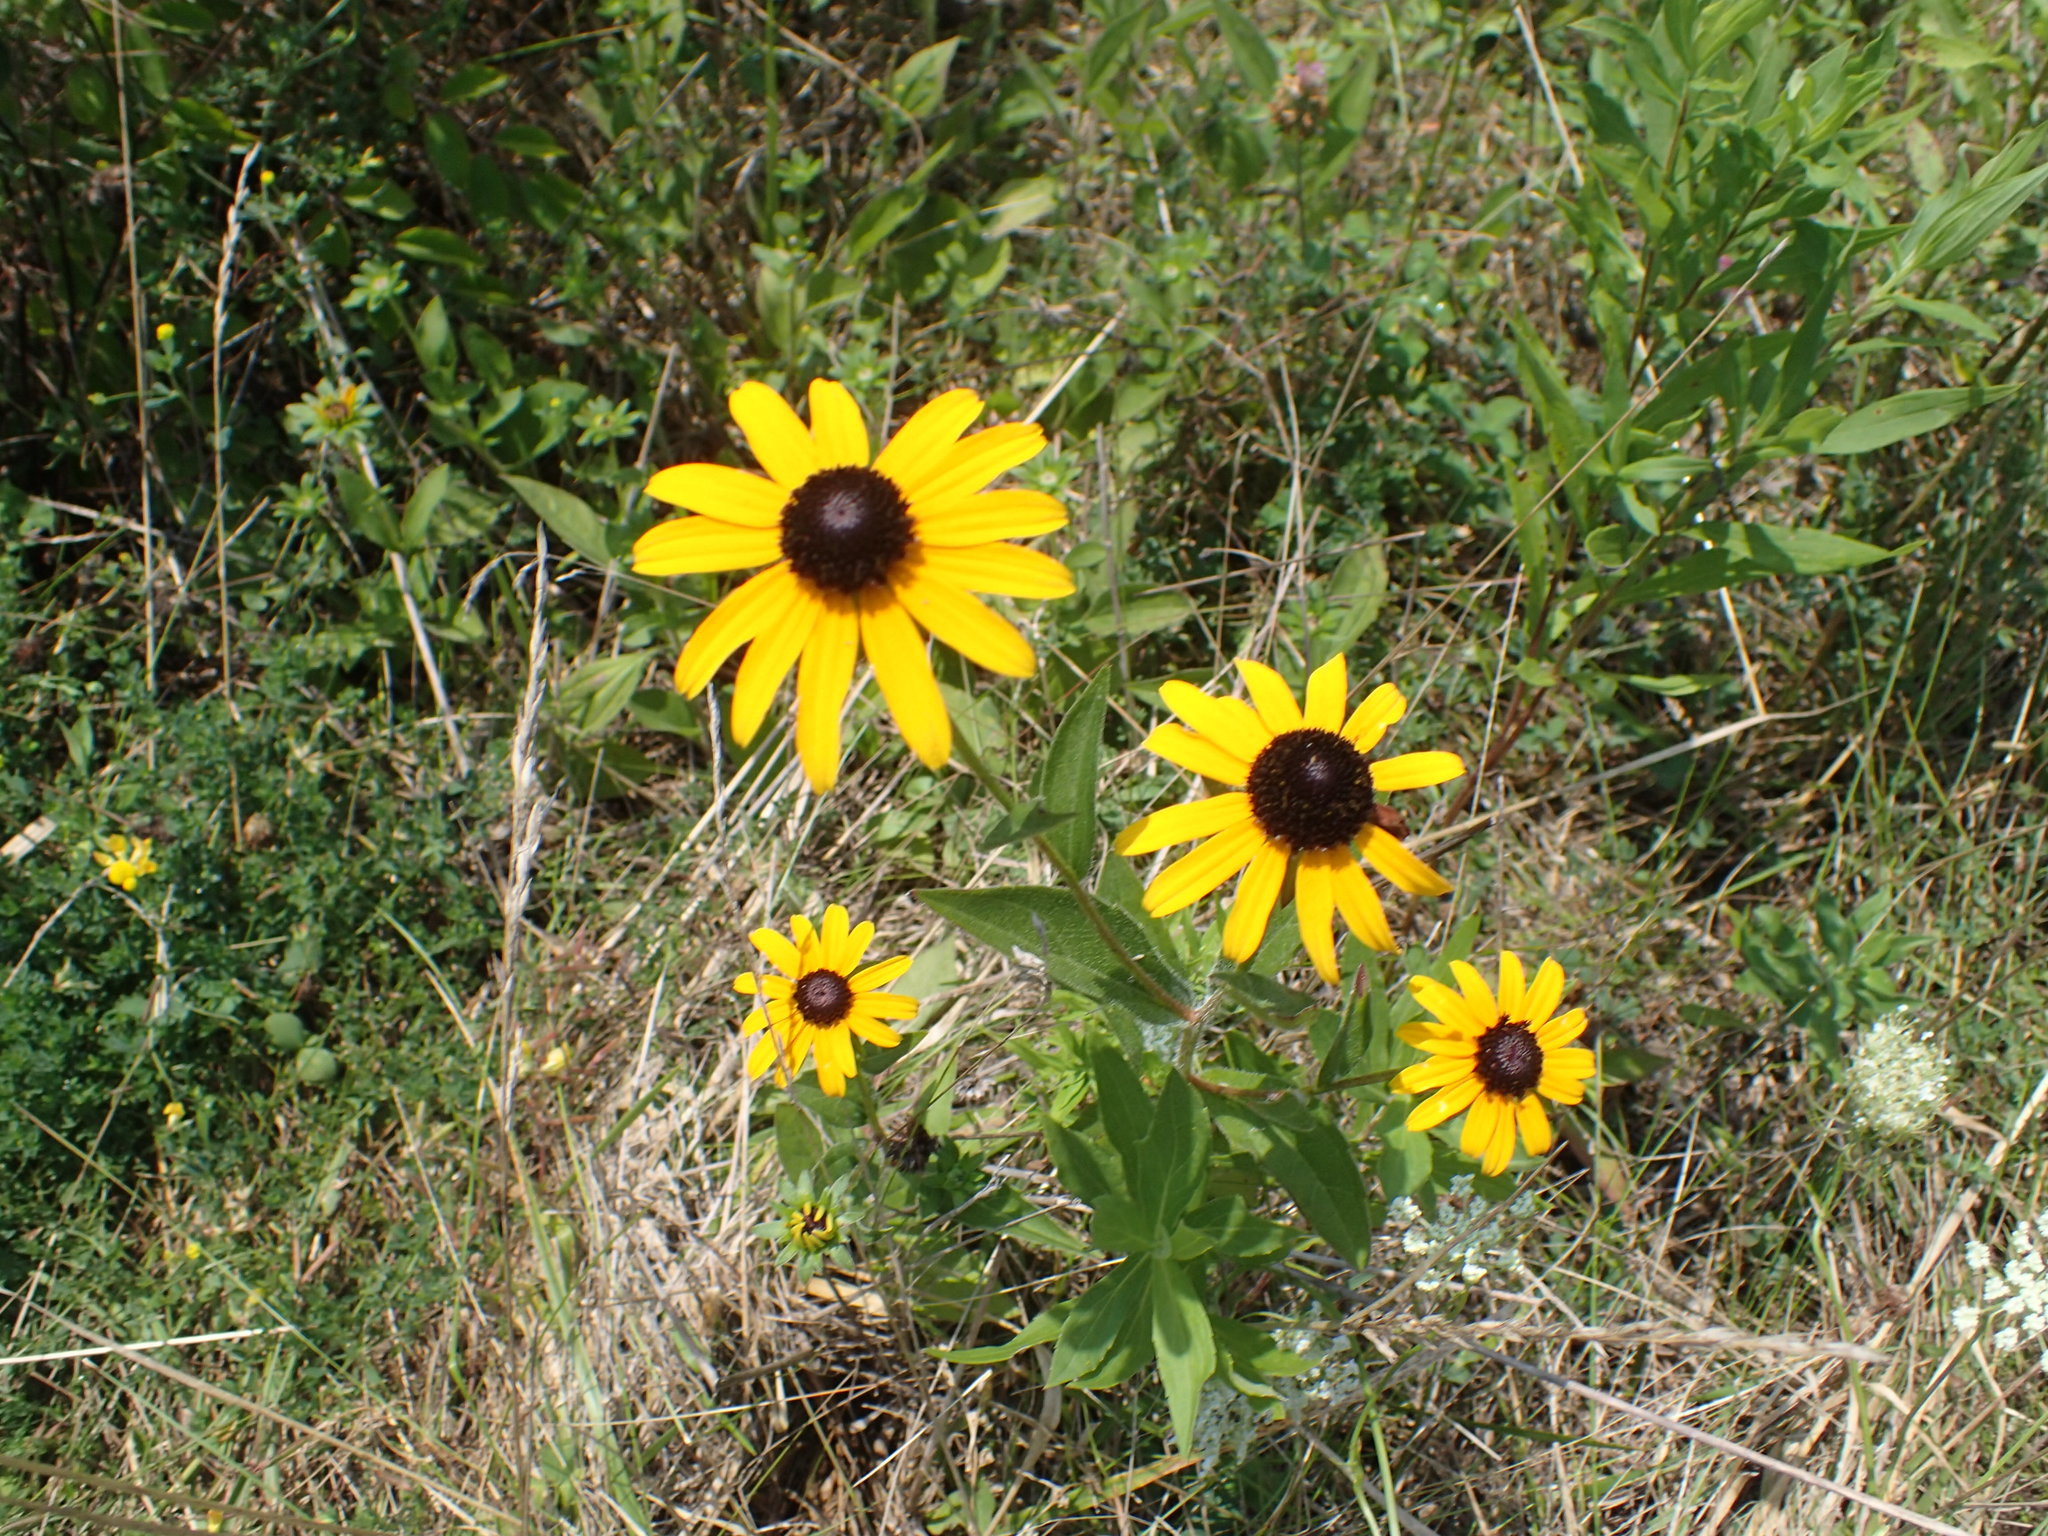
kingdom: Plantae
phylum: Tracheophyta
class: Magnoliopsida
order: Asterales
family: Asteraceae
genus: Rudbeckia
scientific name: Rudbeckia hirta
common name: Black-eyed-susan
